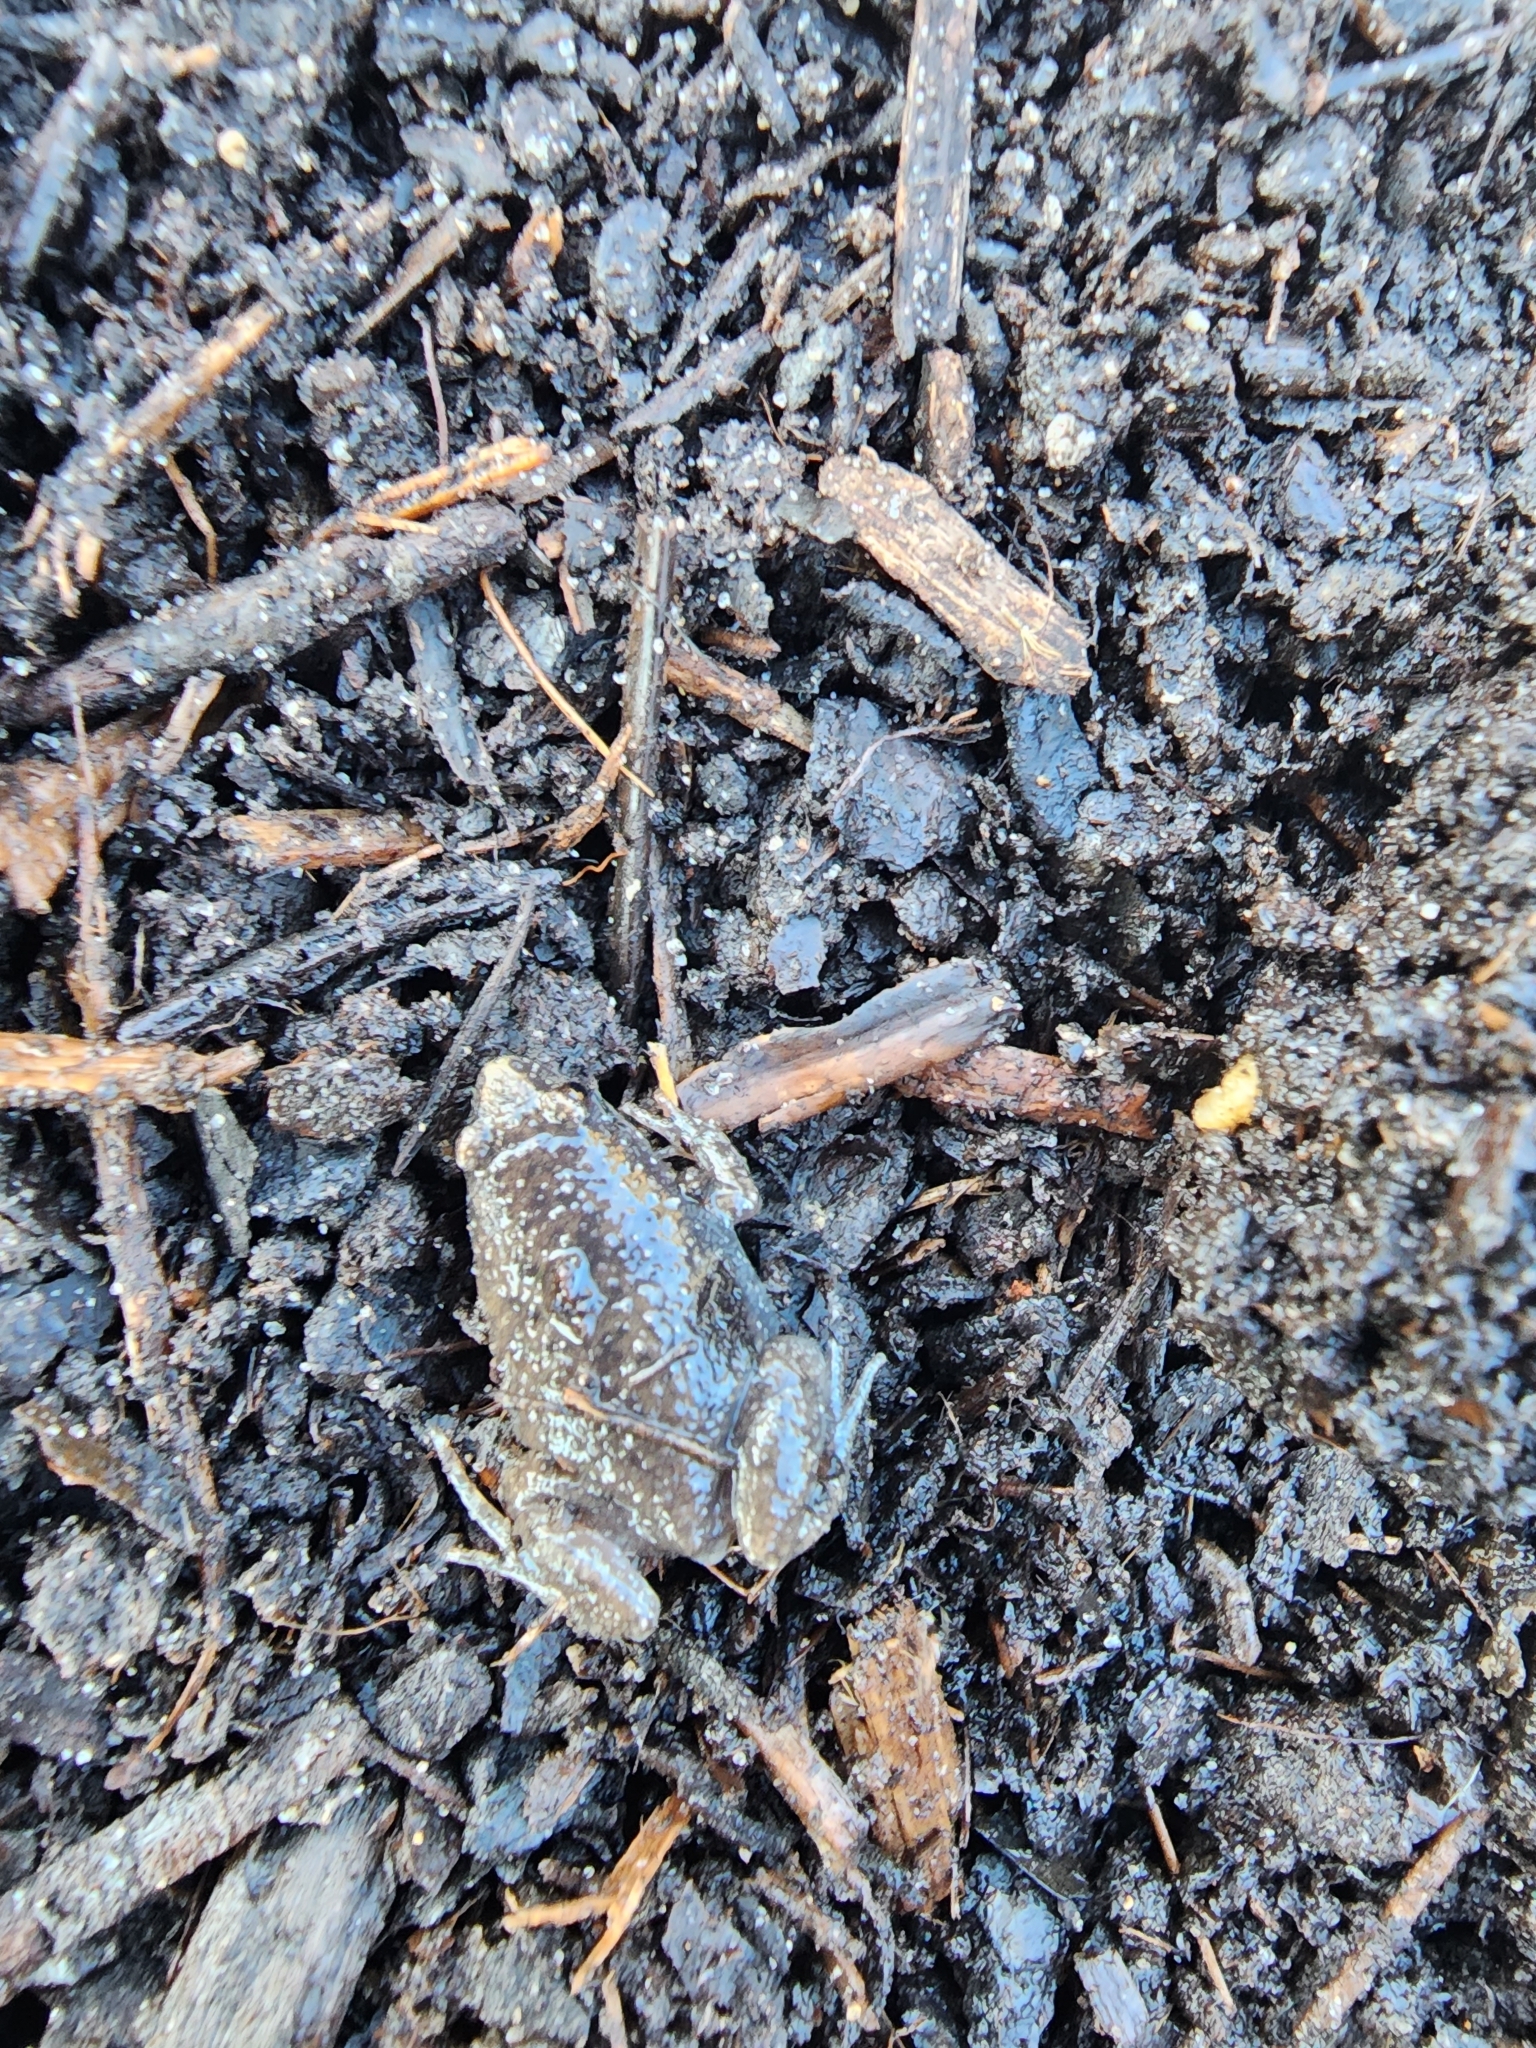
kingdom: Animalia
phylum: Chordata
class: Amphibia
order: Anura
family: Microhylidae
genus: Gastrophryne
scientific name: Gastrophryne carolinensis
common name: Eastern narrowmouth toad
